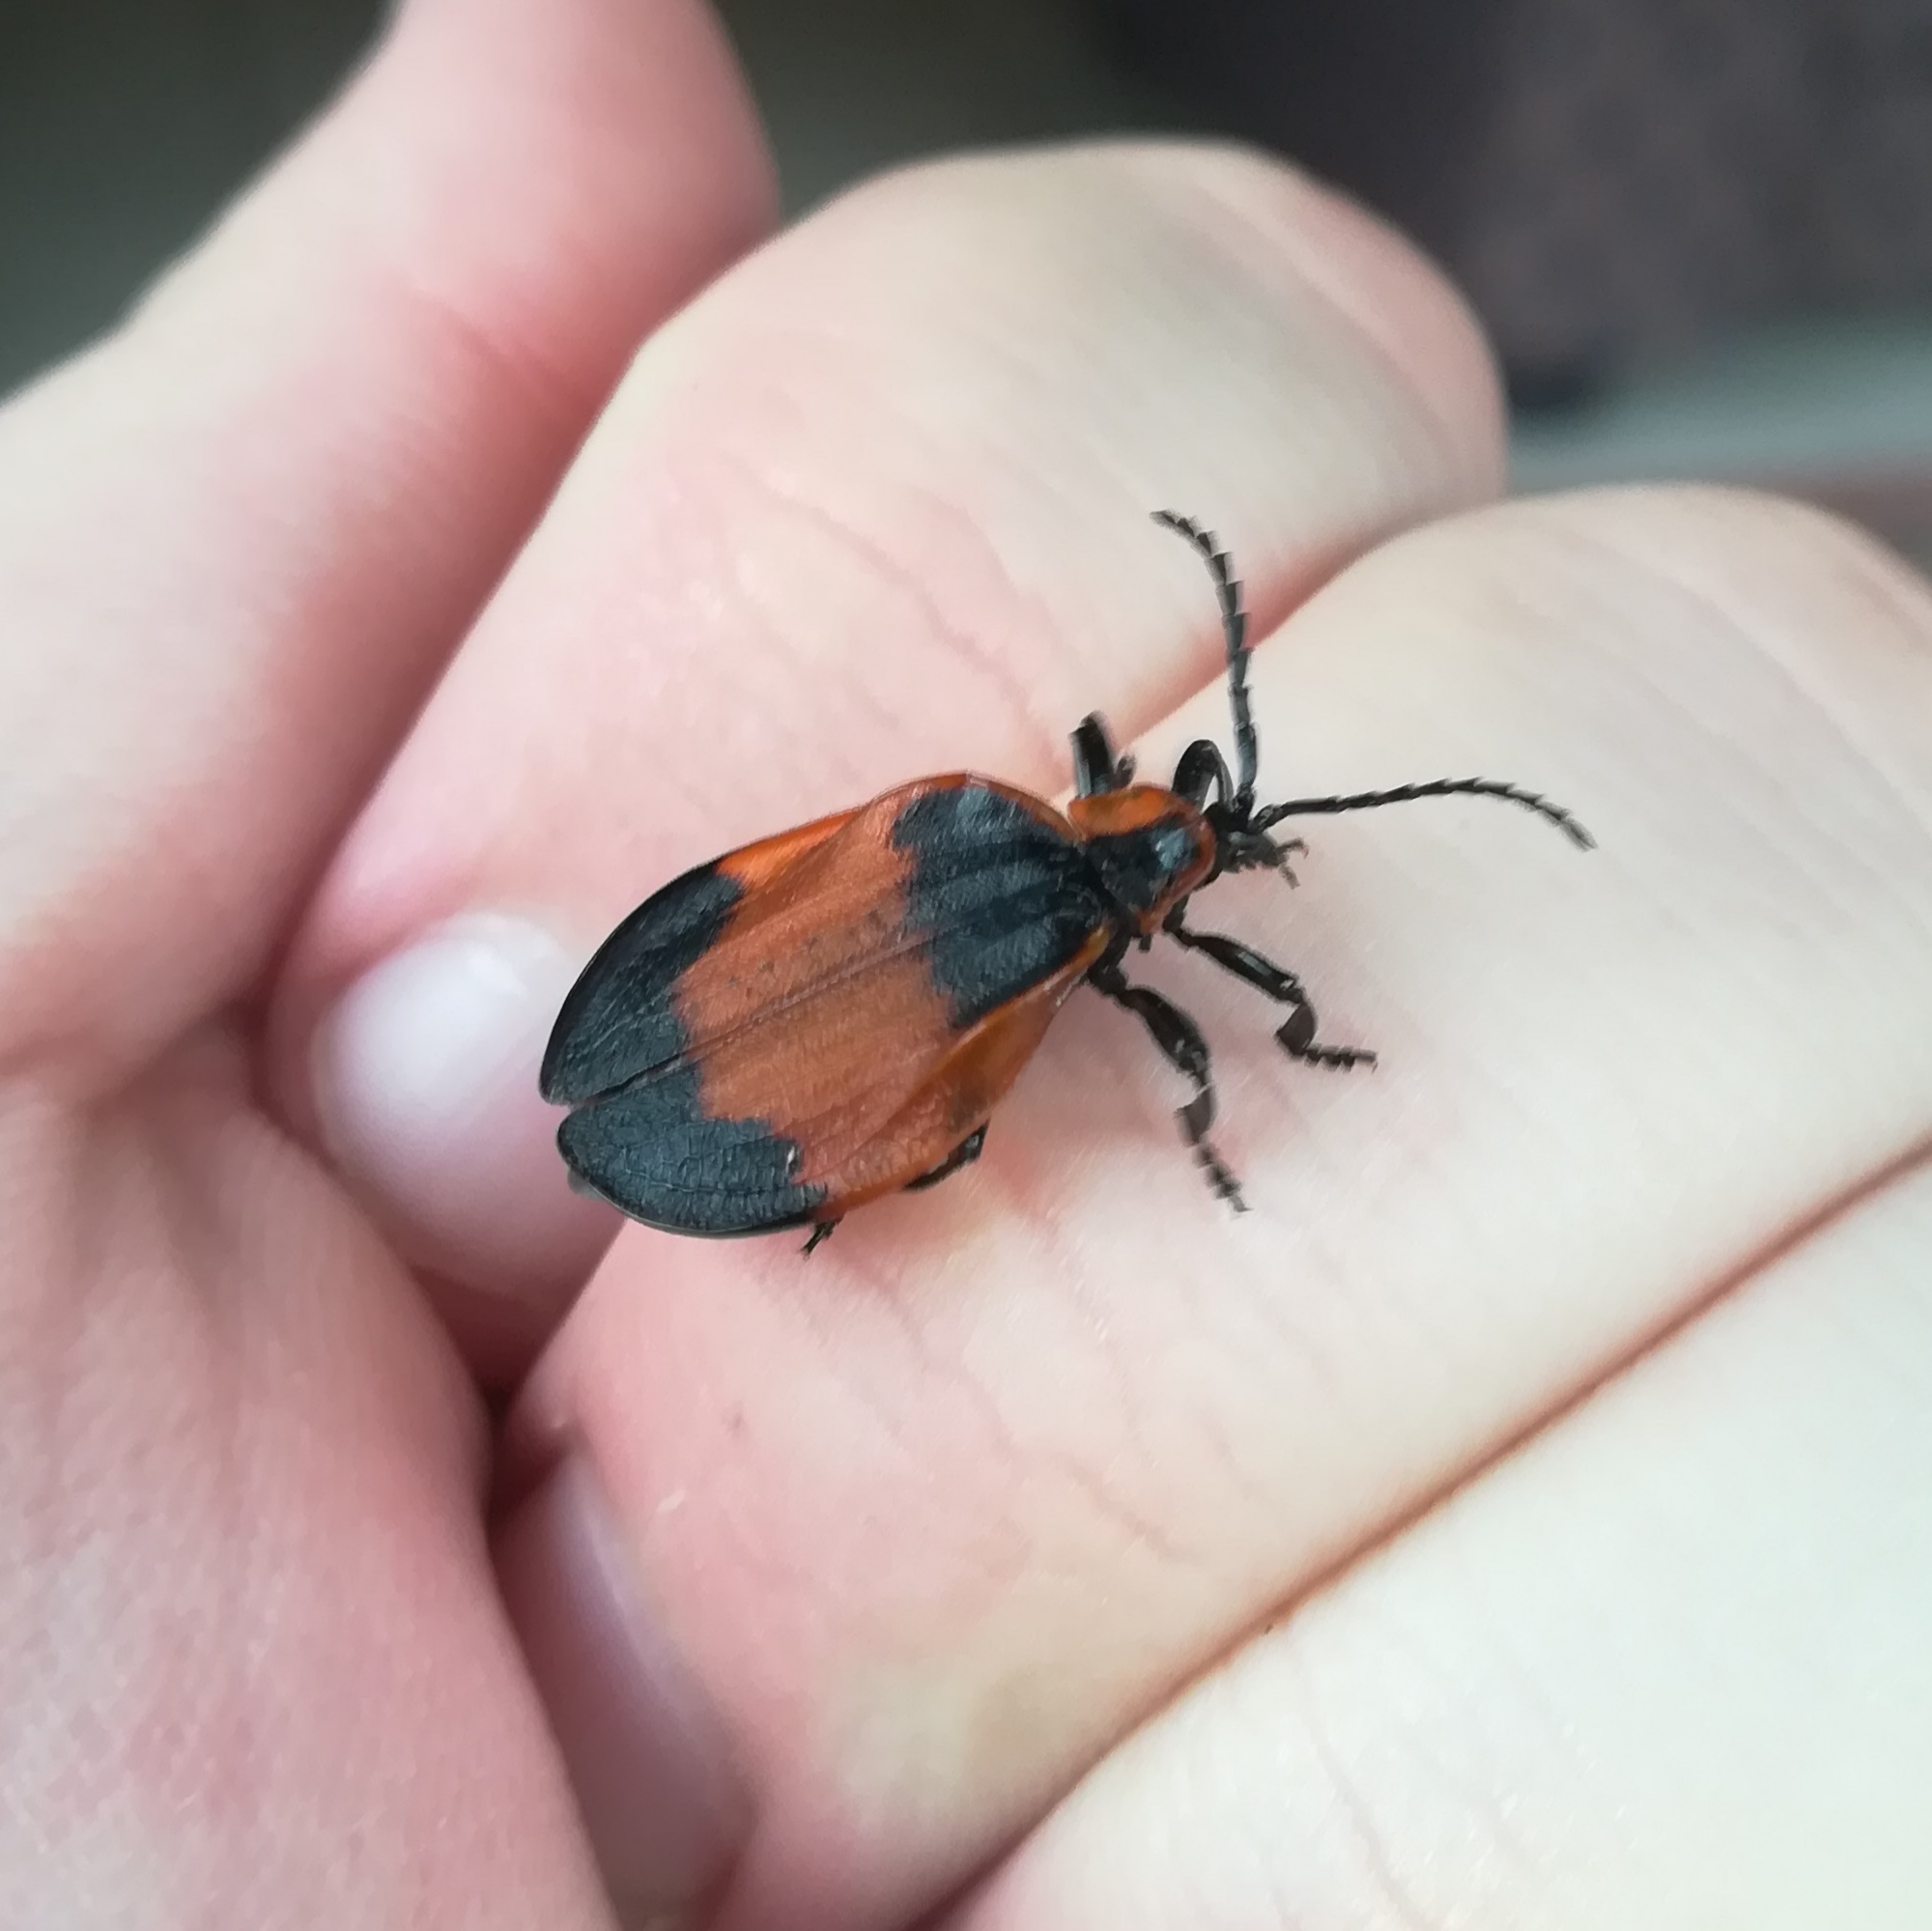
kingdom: Animalia
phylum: Arthropoda
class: Insecta
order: Coleoptera
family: Lycidae
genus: Lycus
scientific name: Lycus
